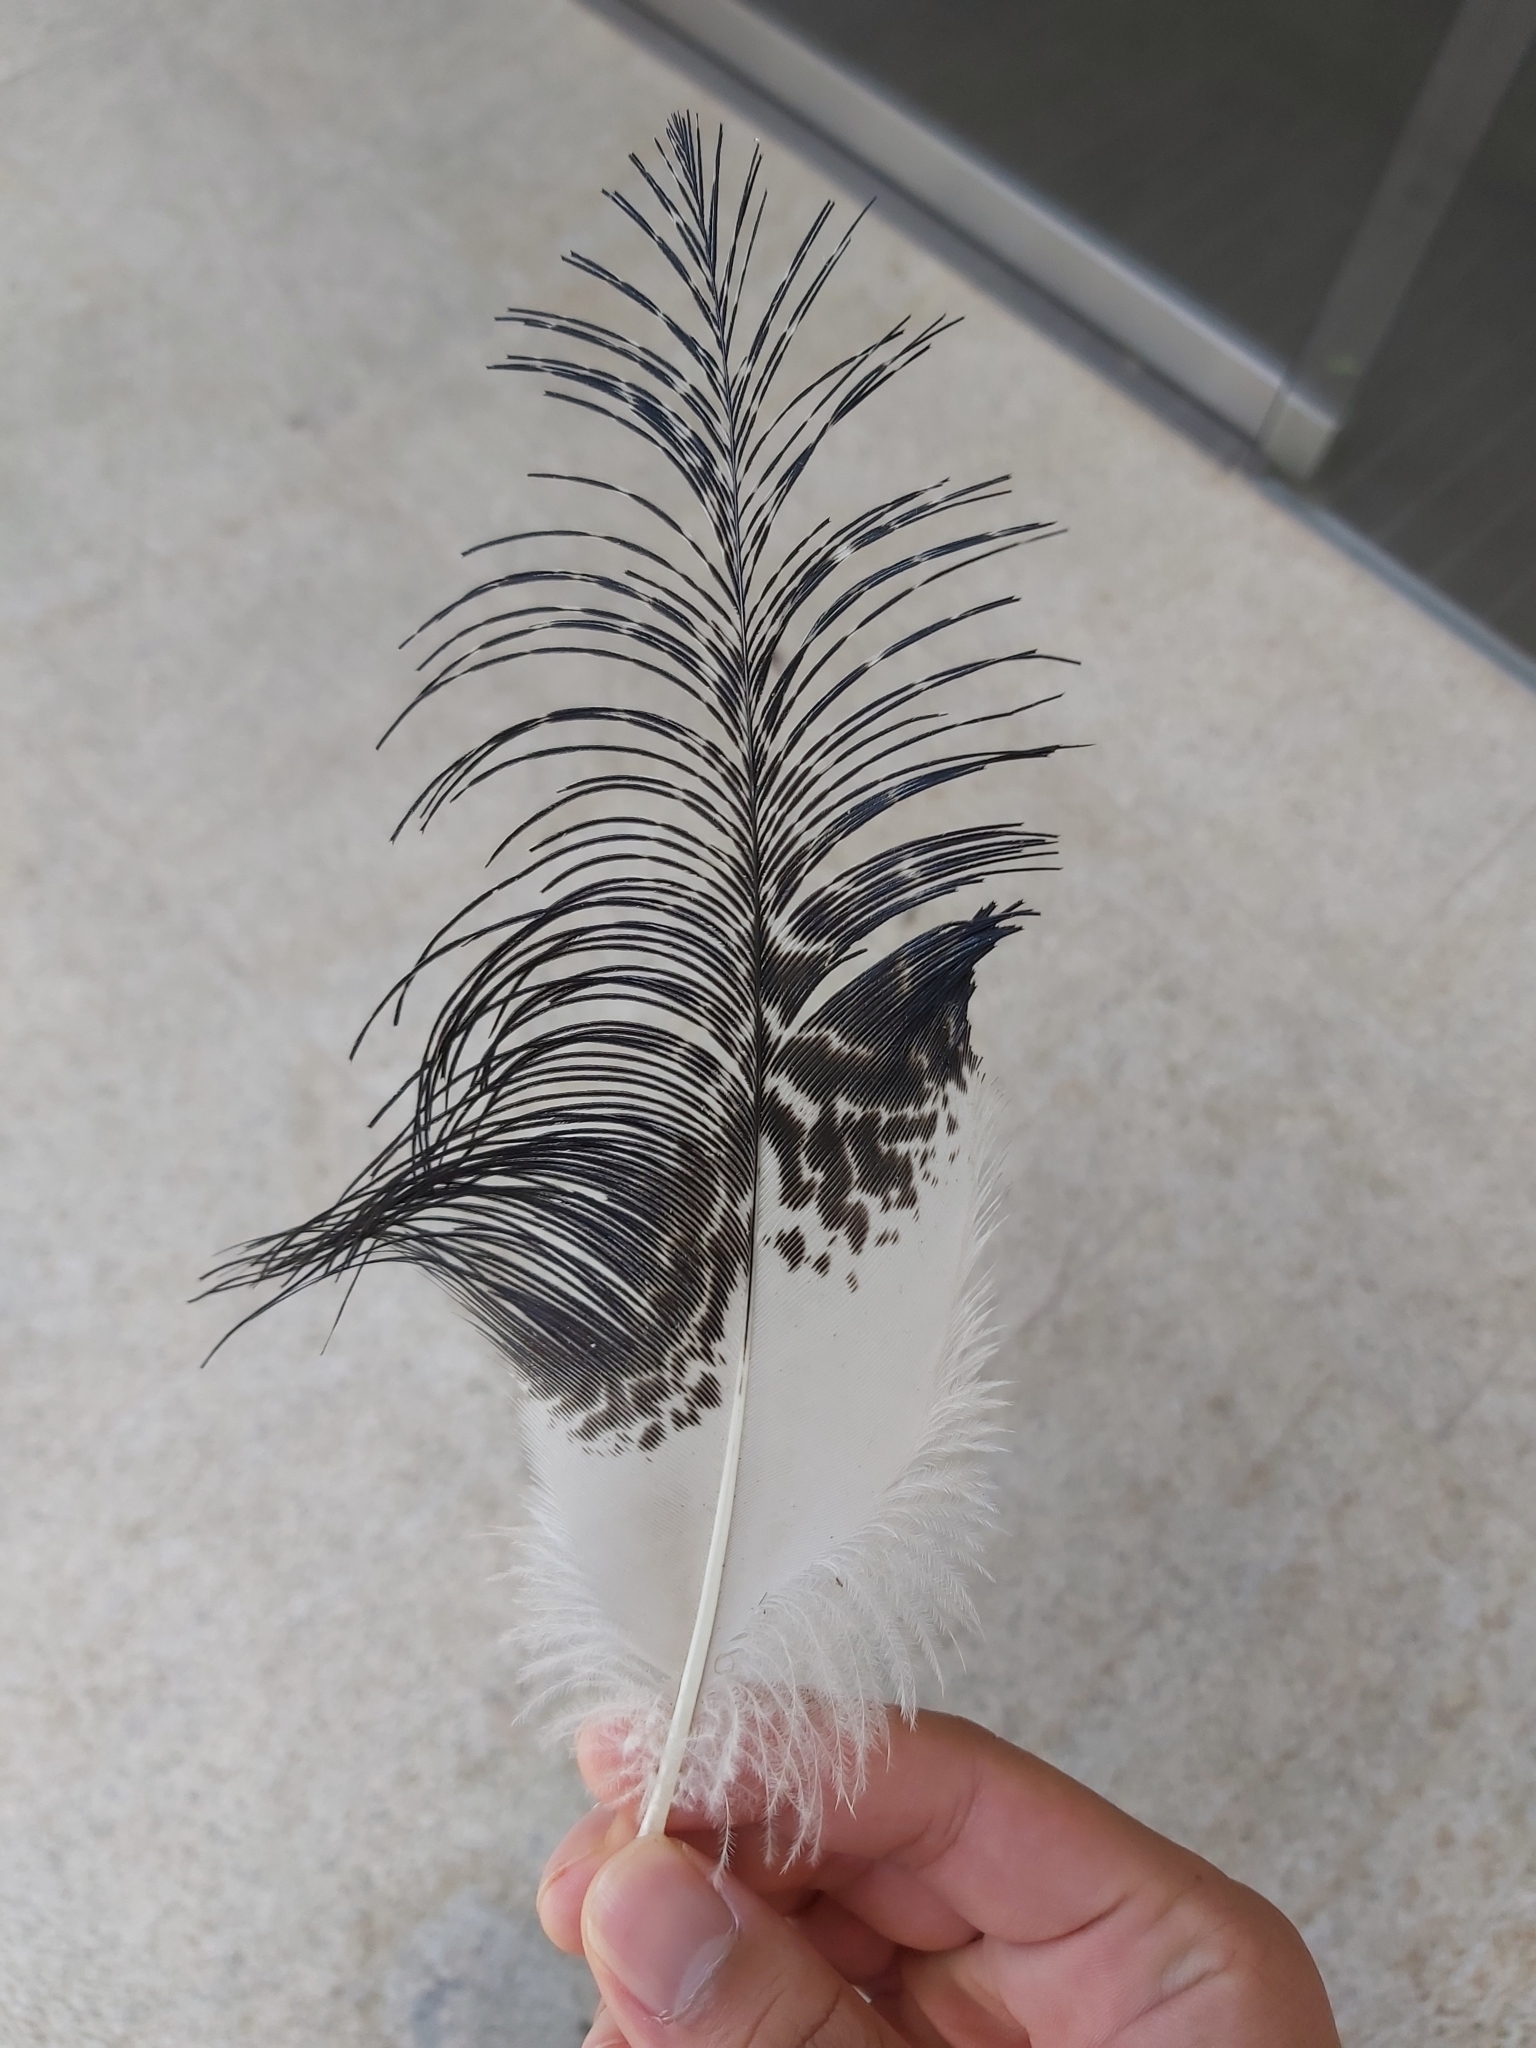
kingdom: Animalia
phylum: Chordata
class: Aves
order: Pelecaniformes
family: Threskiornithidae
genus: Threskiornis
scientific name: Threskiornis molucca
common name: Australian white ibis
